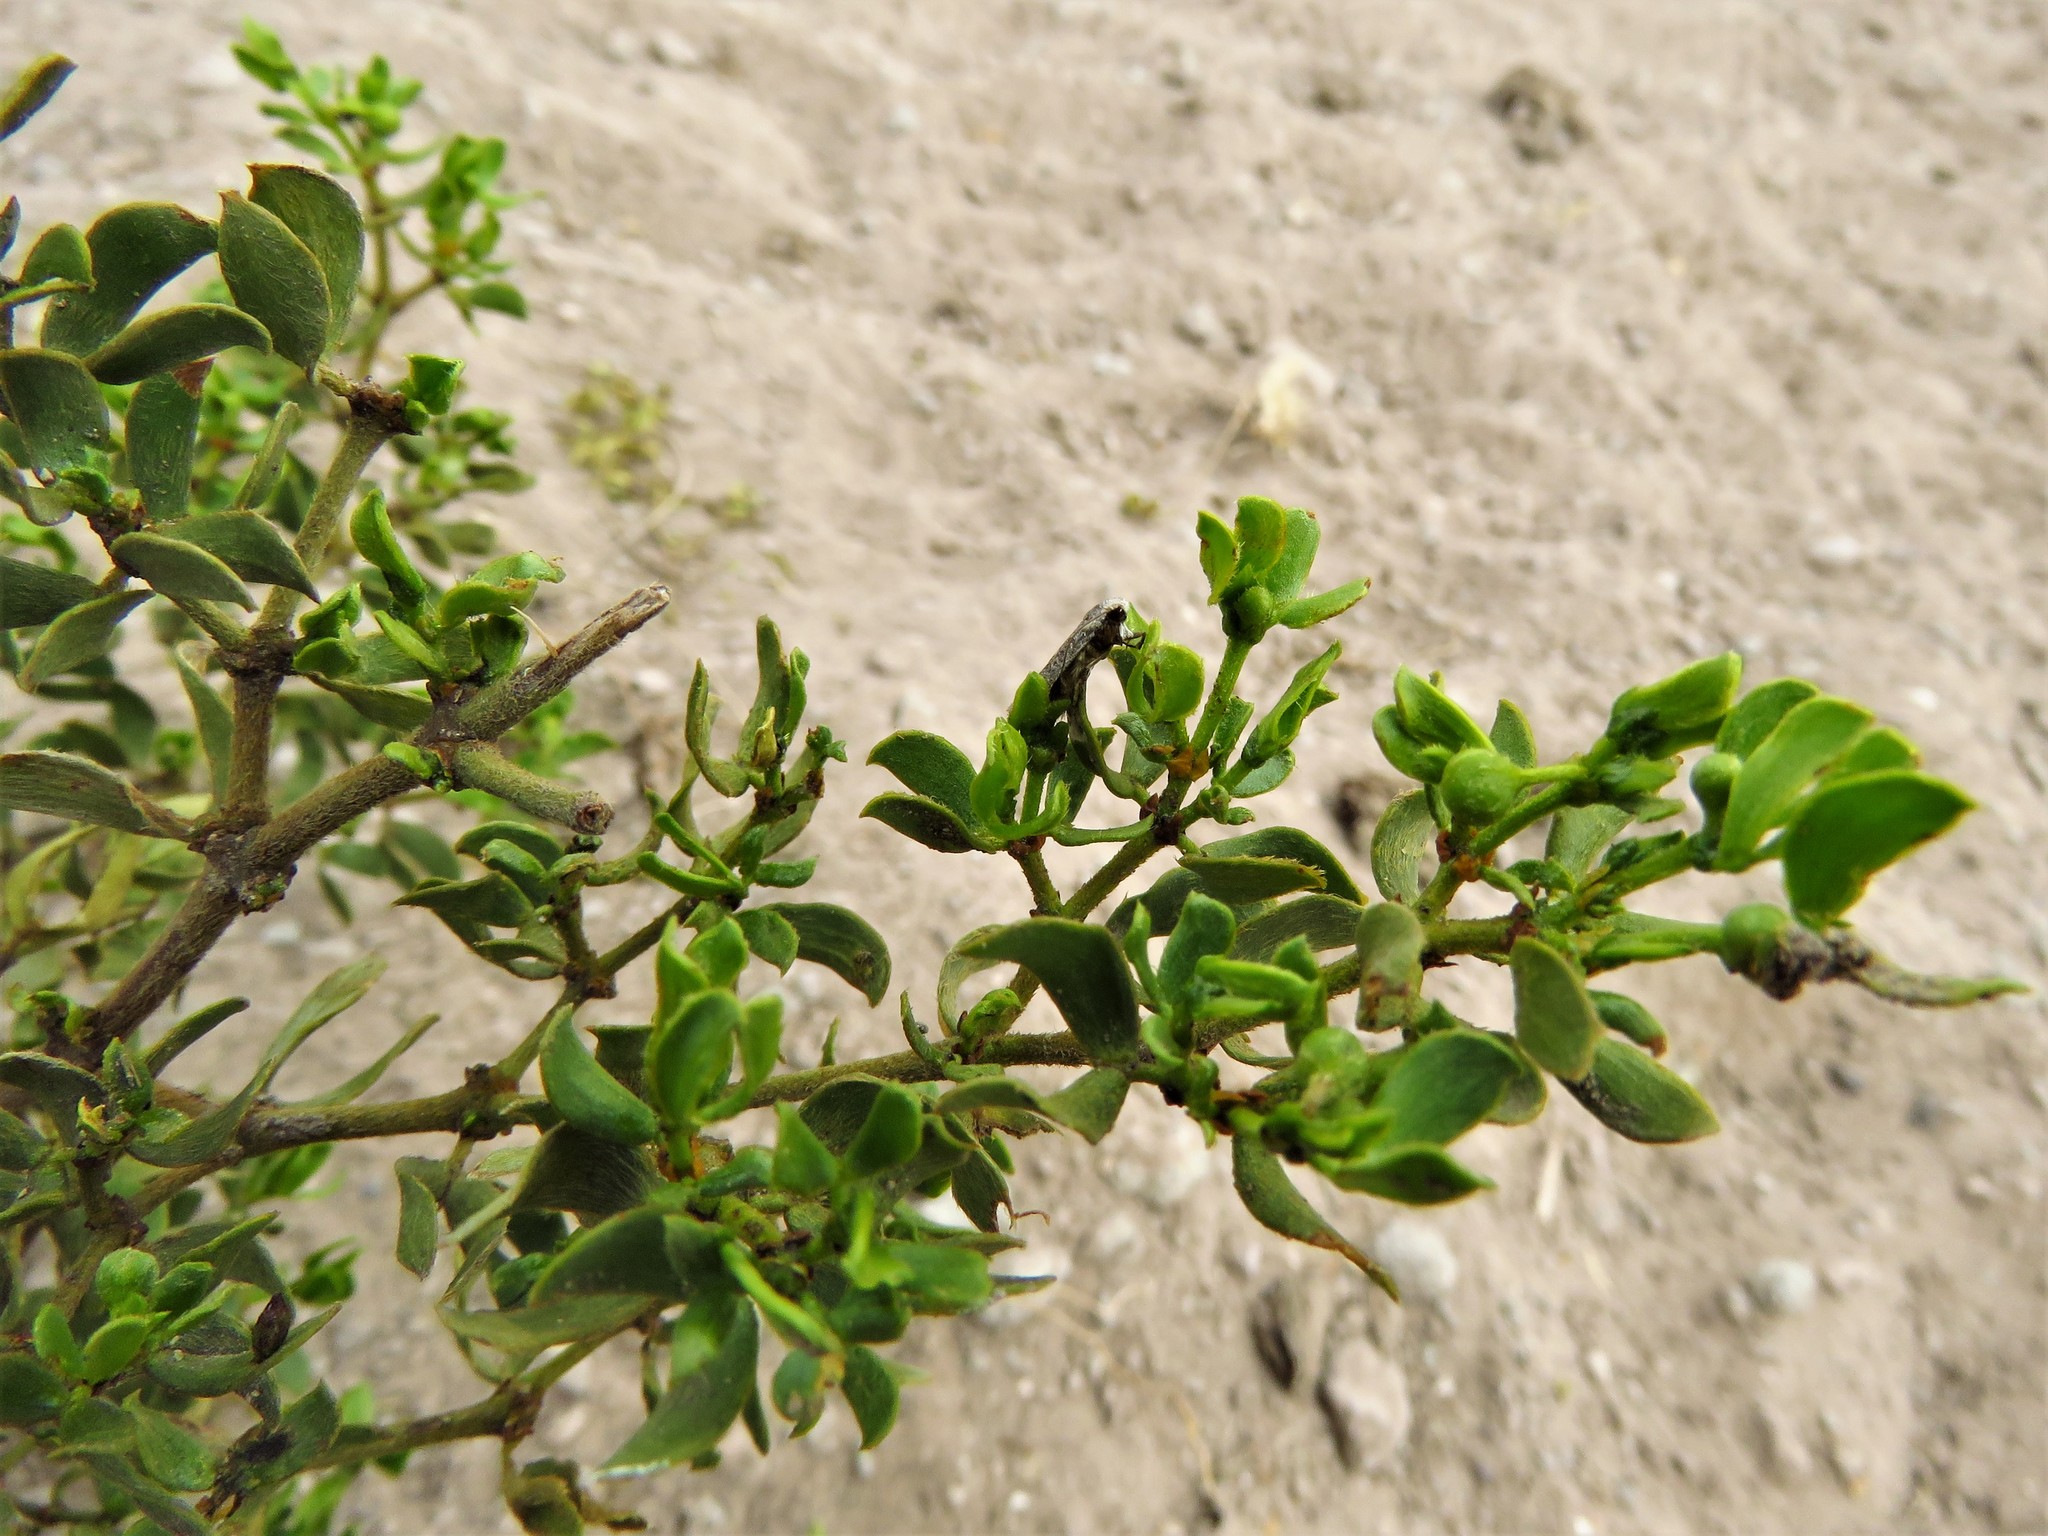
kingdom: Plantae
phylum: Tracheophyta
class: Magnoliopsida
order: Zygophyllales
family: Zygophyllaceae
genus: Larrea
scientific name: Larrea tridentata
